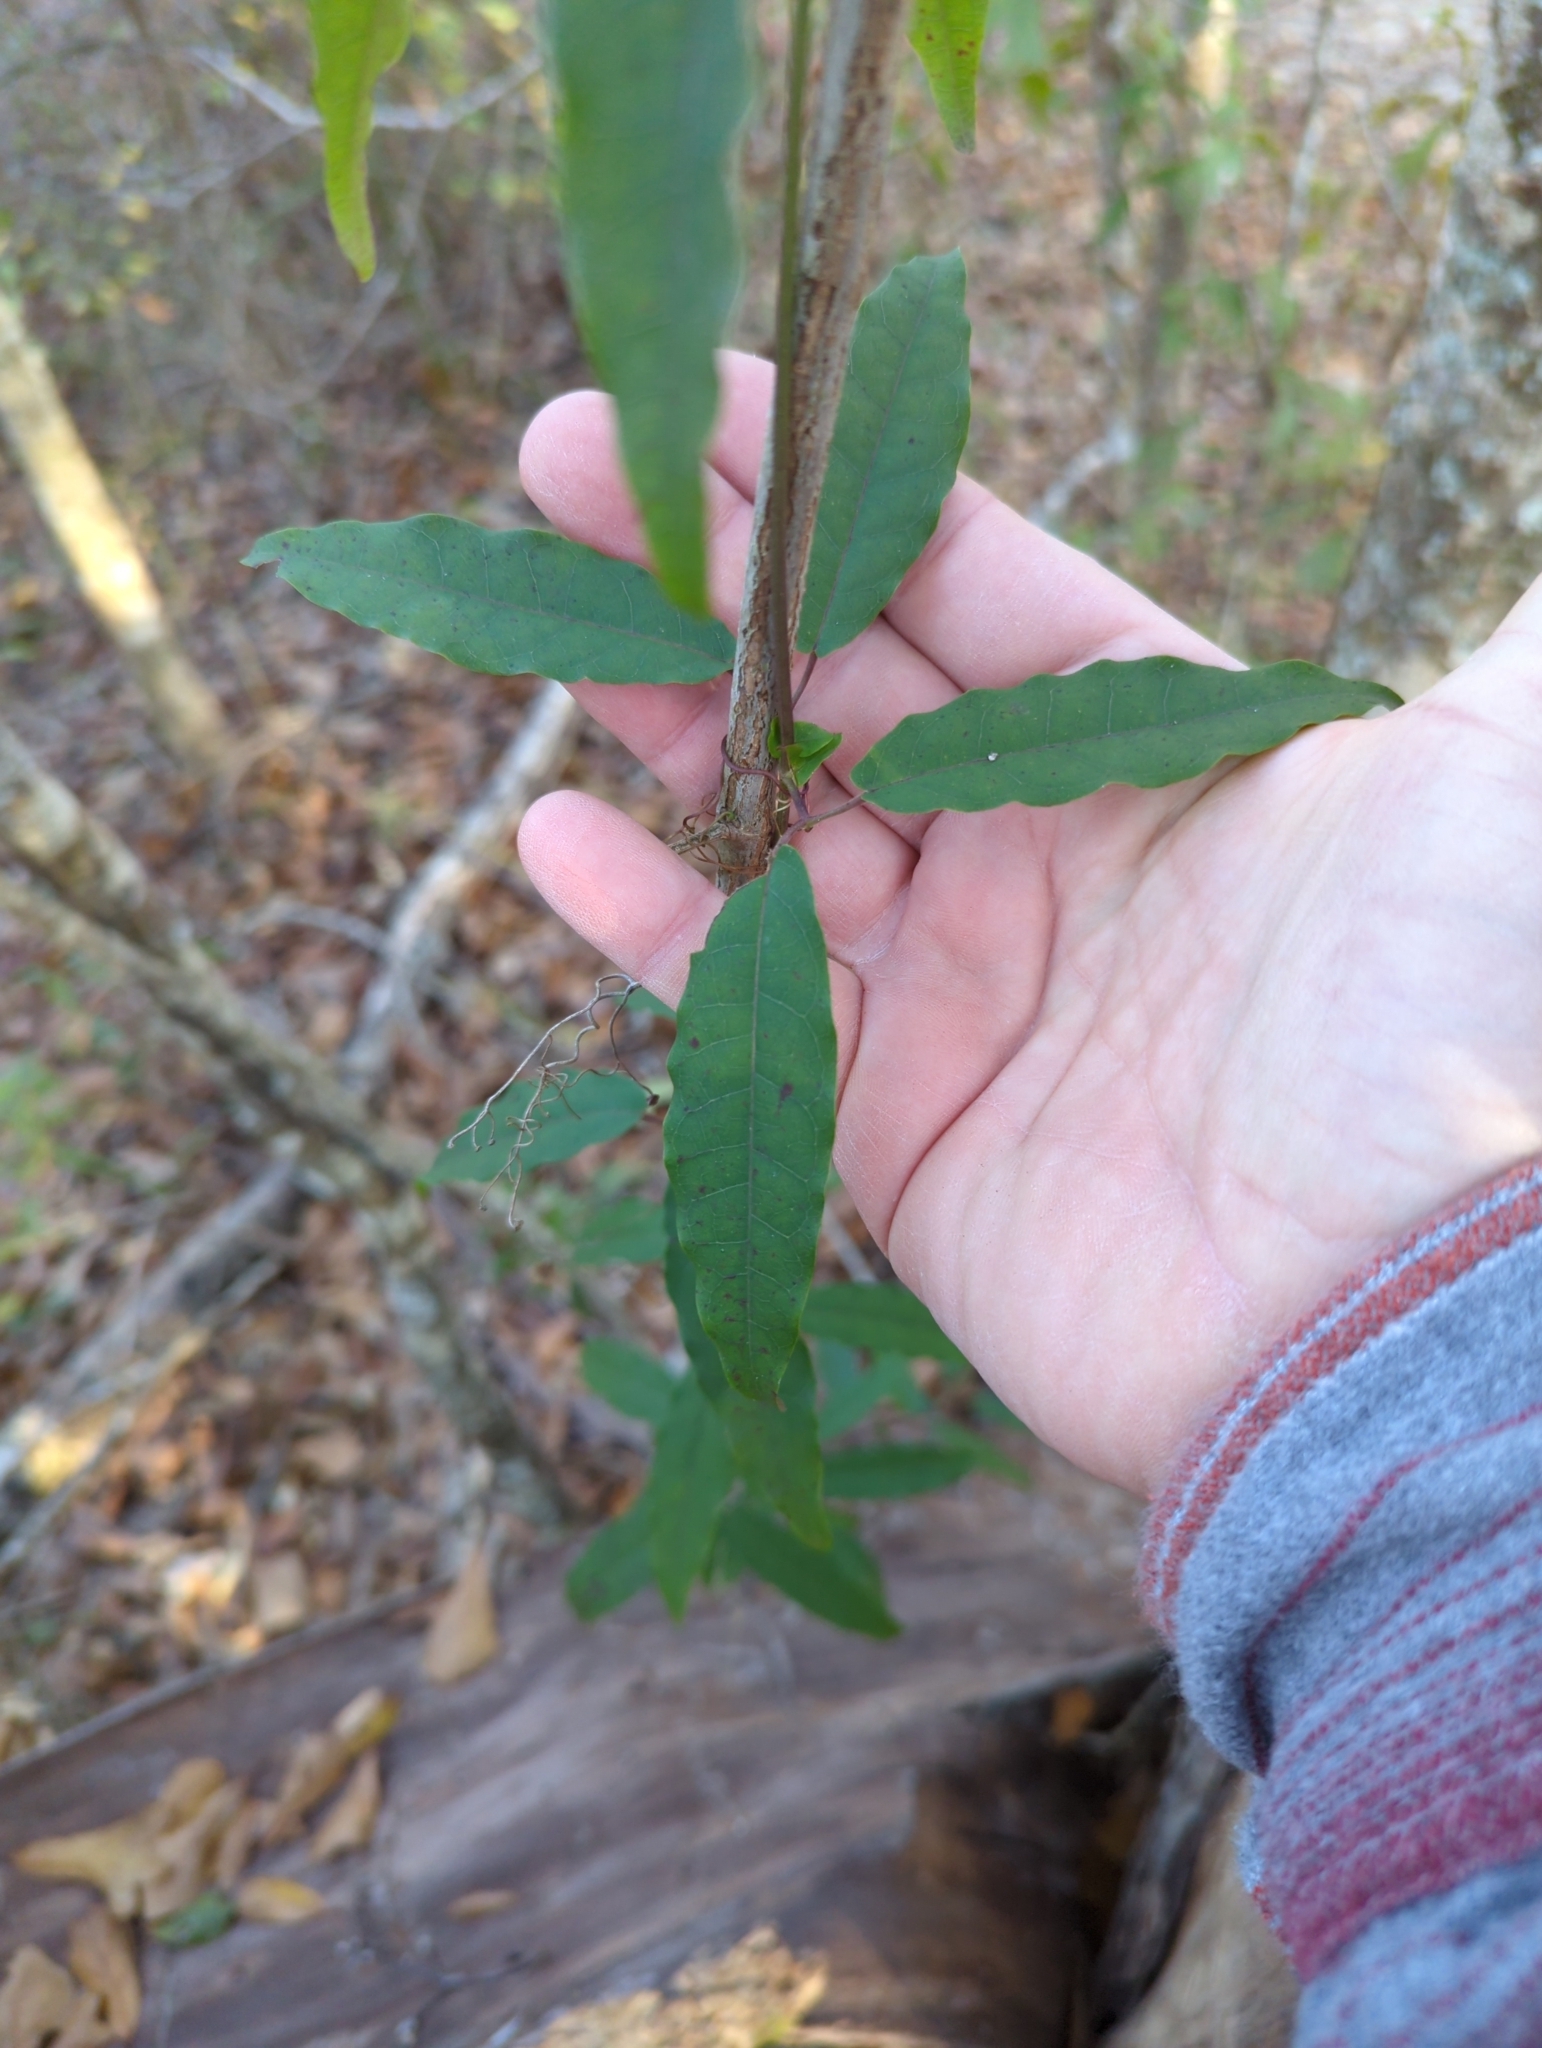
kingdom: Plantae
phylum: Tracheophyta
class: Magnoliopsida
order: Lamiales
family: Bignoniaceae
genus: Bignonia
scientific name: Bignonia capreolata
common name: Crossvine
